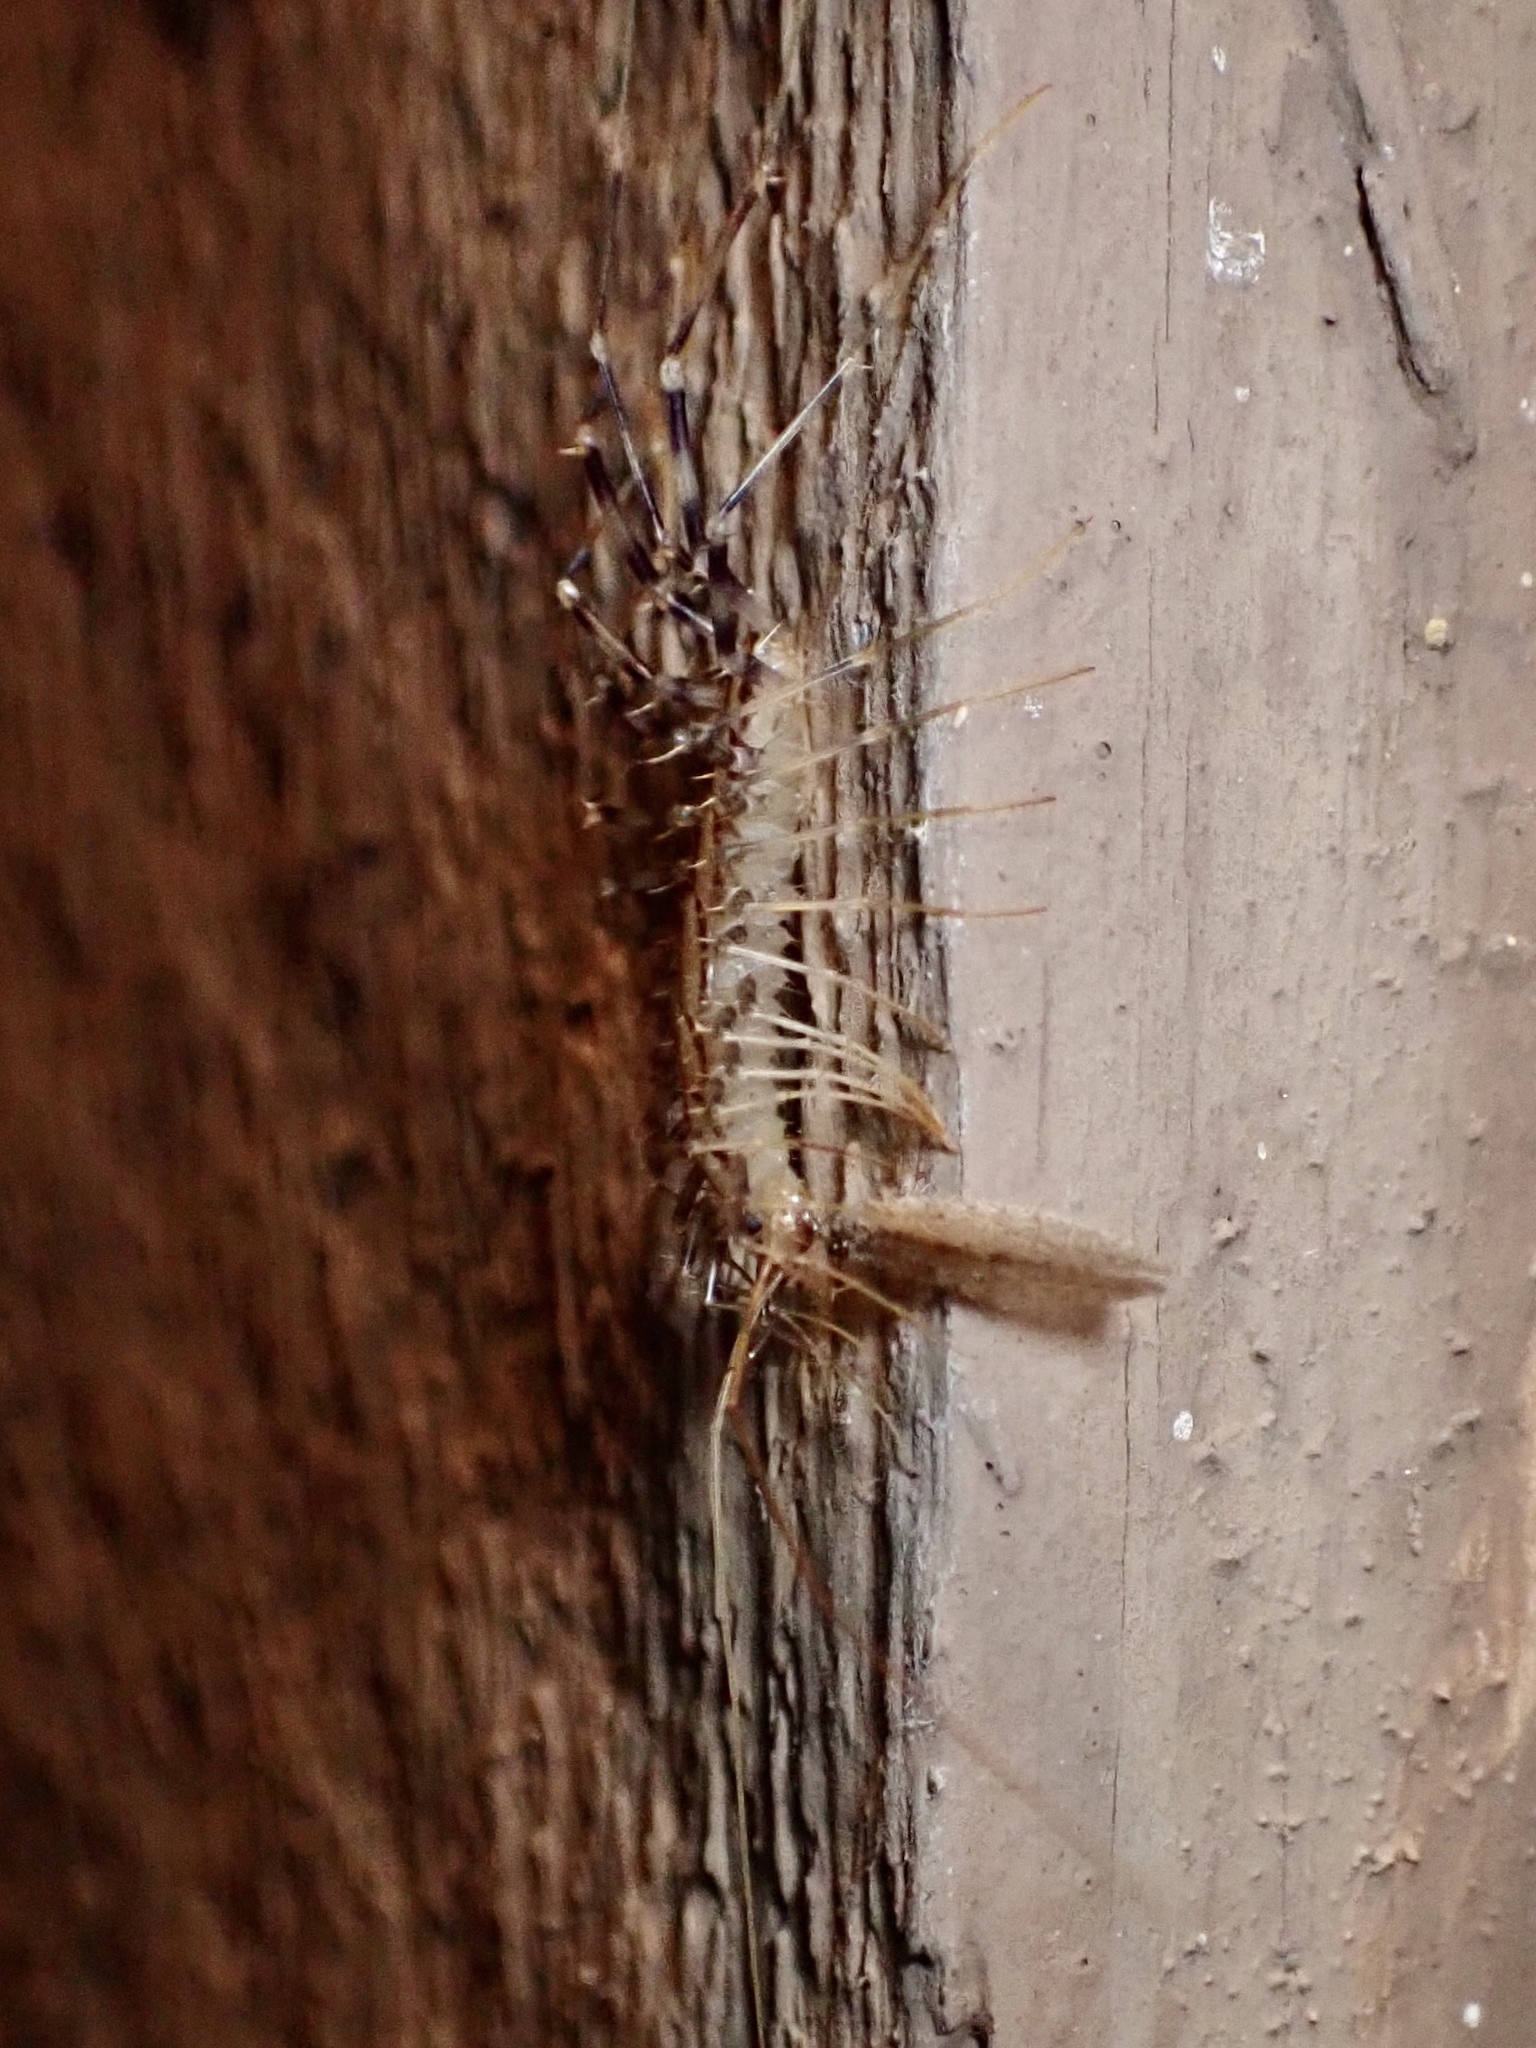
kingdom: Animalia
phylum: Arthropoda
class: Chilopoda
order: Scutigeromorpha
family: Scutigeridae
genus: Scutigera
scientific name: Scutigera coleoptrata
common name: House centipede
